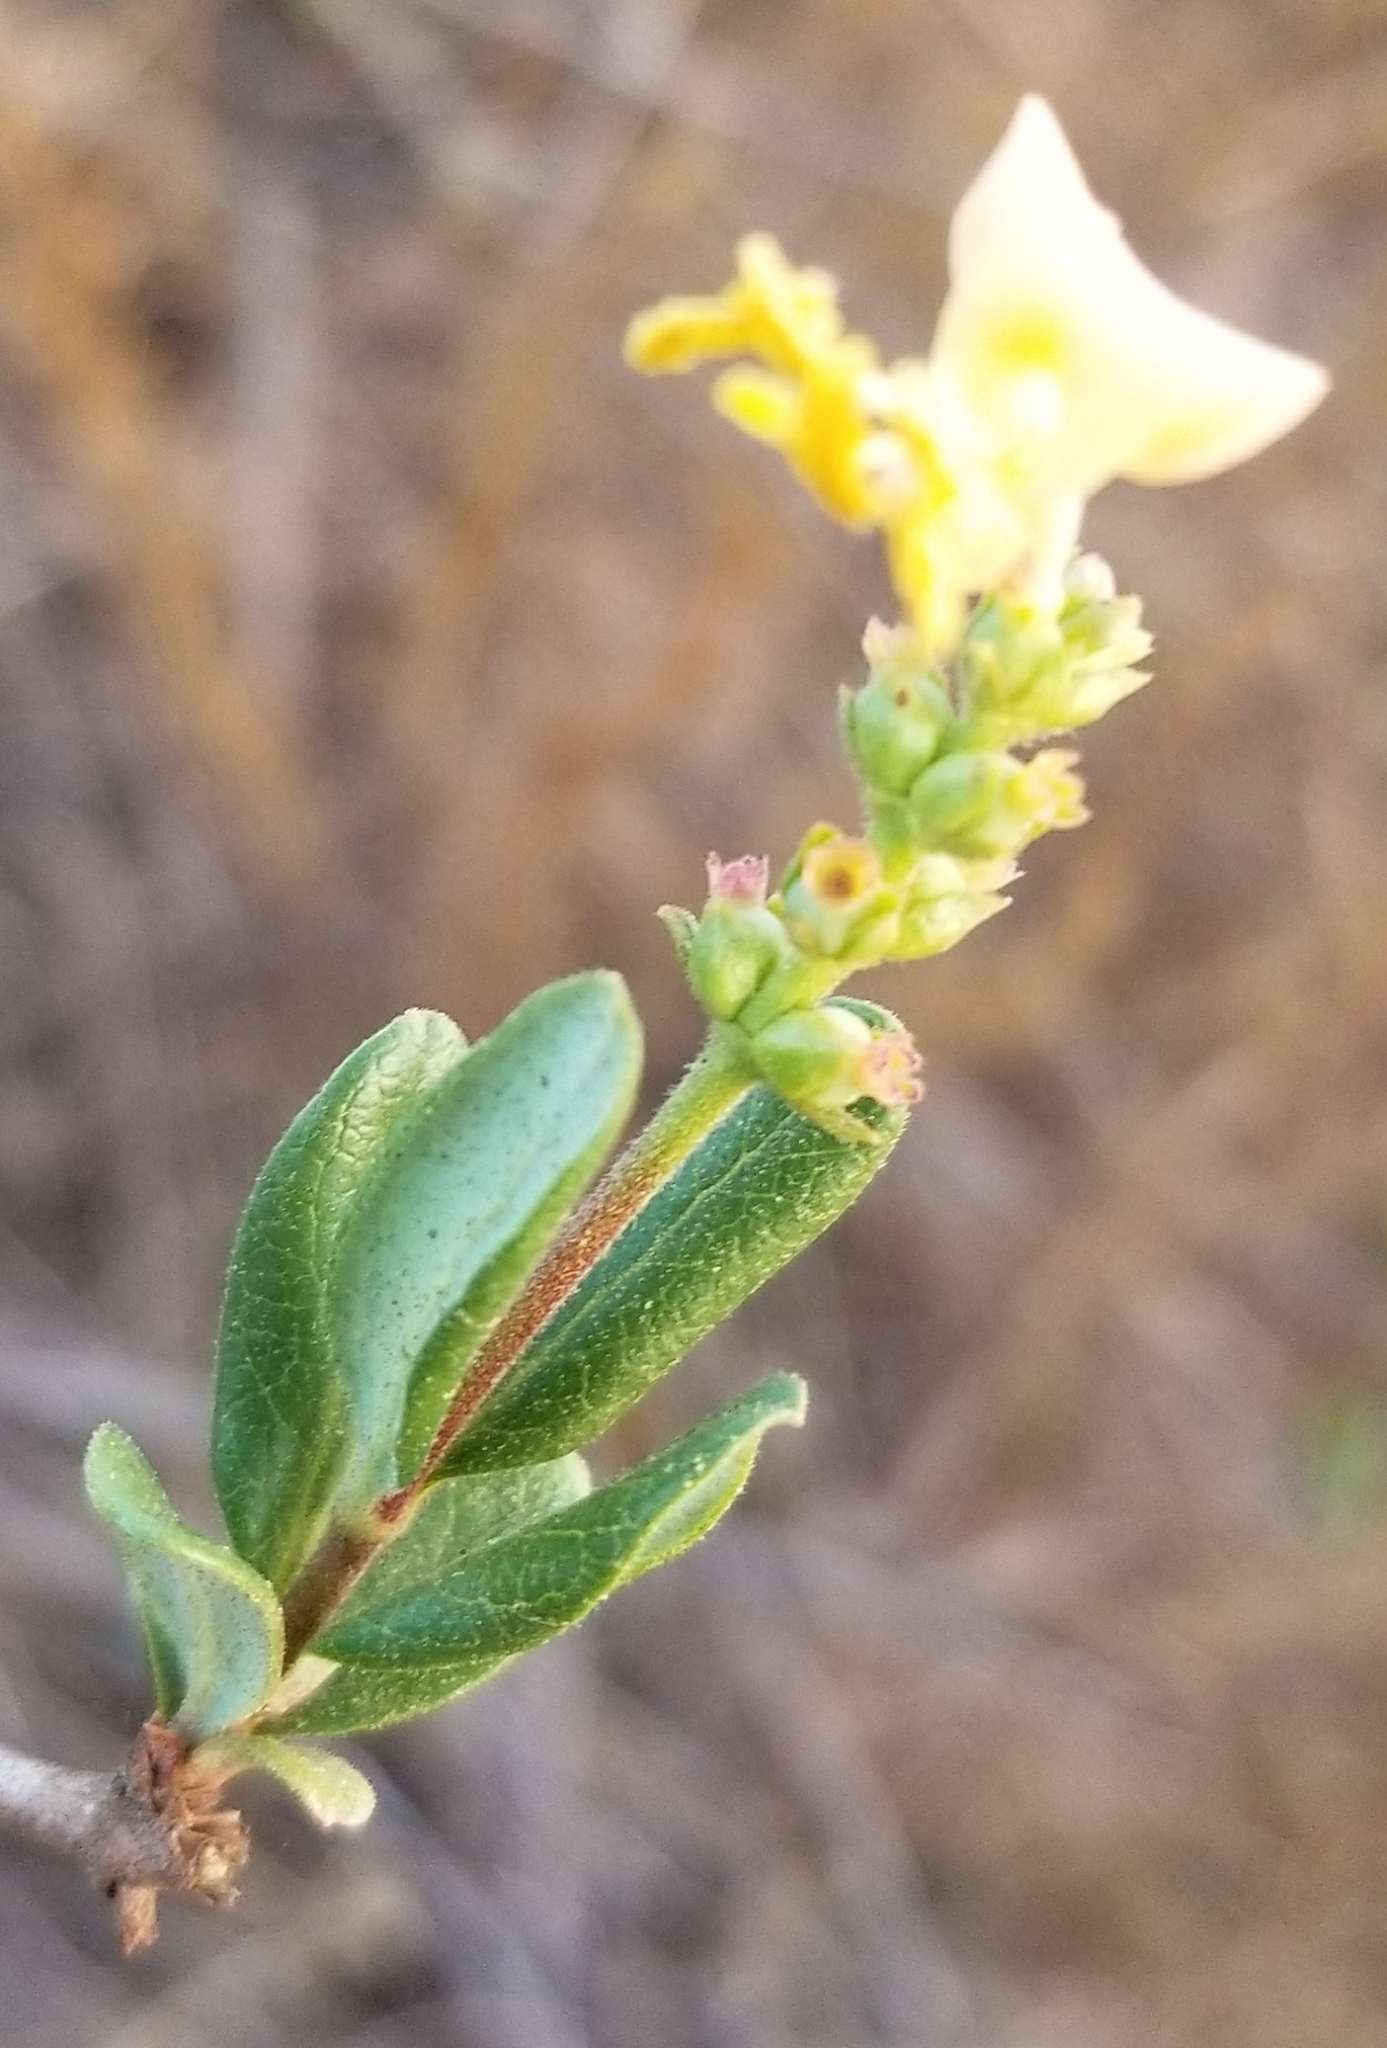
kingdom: Plantae
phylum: Tracheophyta
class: Magnoliopsida
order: Dipsacales
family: Caprifoliaceae
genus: Lonicera
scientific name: Lonicera subspicata
